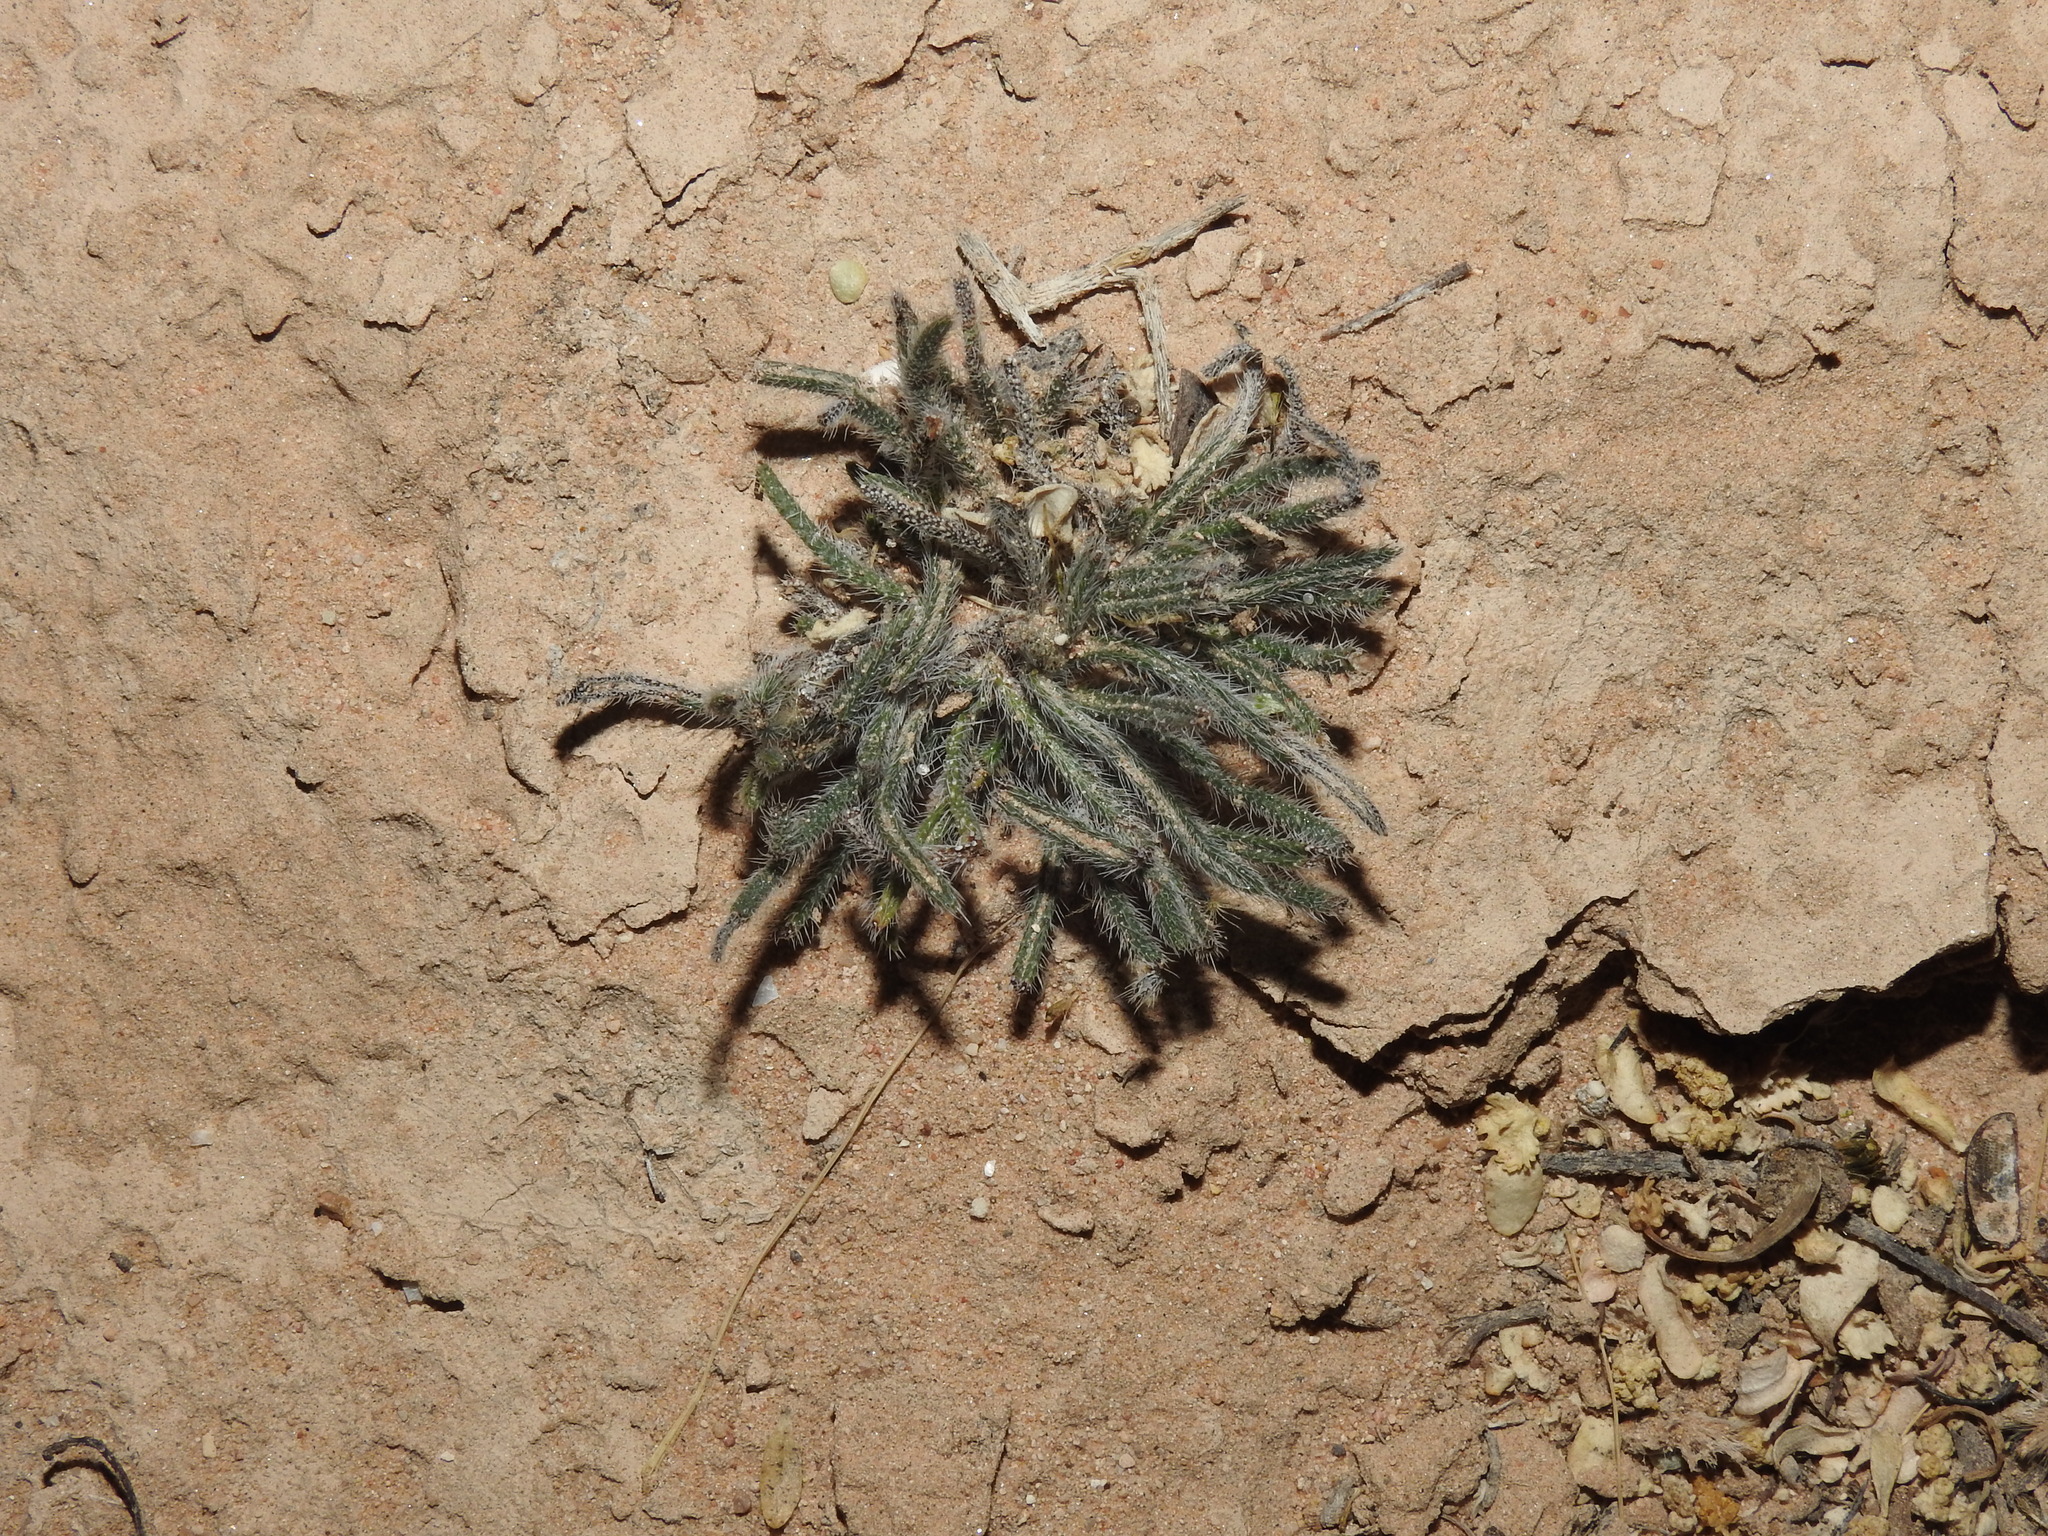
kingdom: Plantae
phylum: Tracheophyta
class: Magnoliopsida
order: Boraginales
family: Boraginaceae
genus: Johnstonella
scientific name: Johnstonella angustifolia
